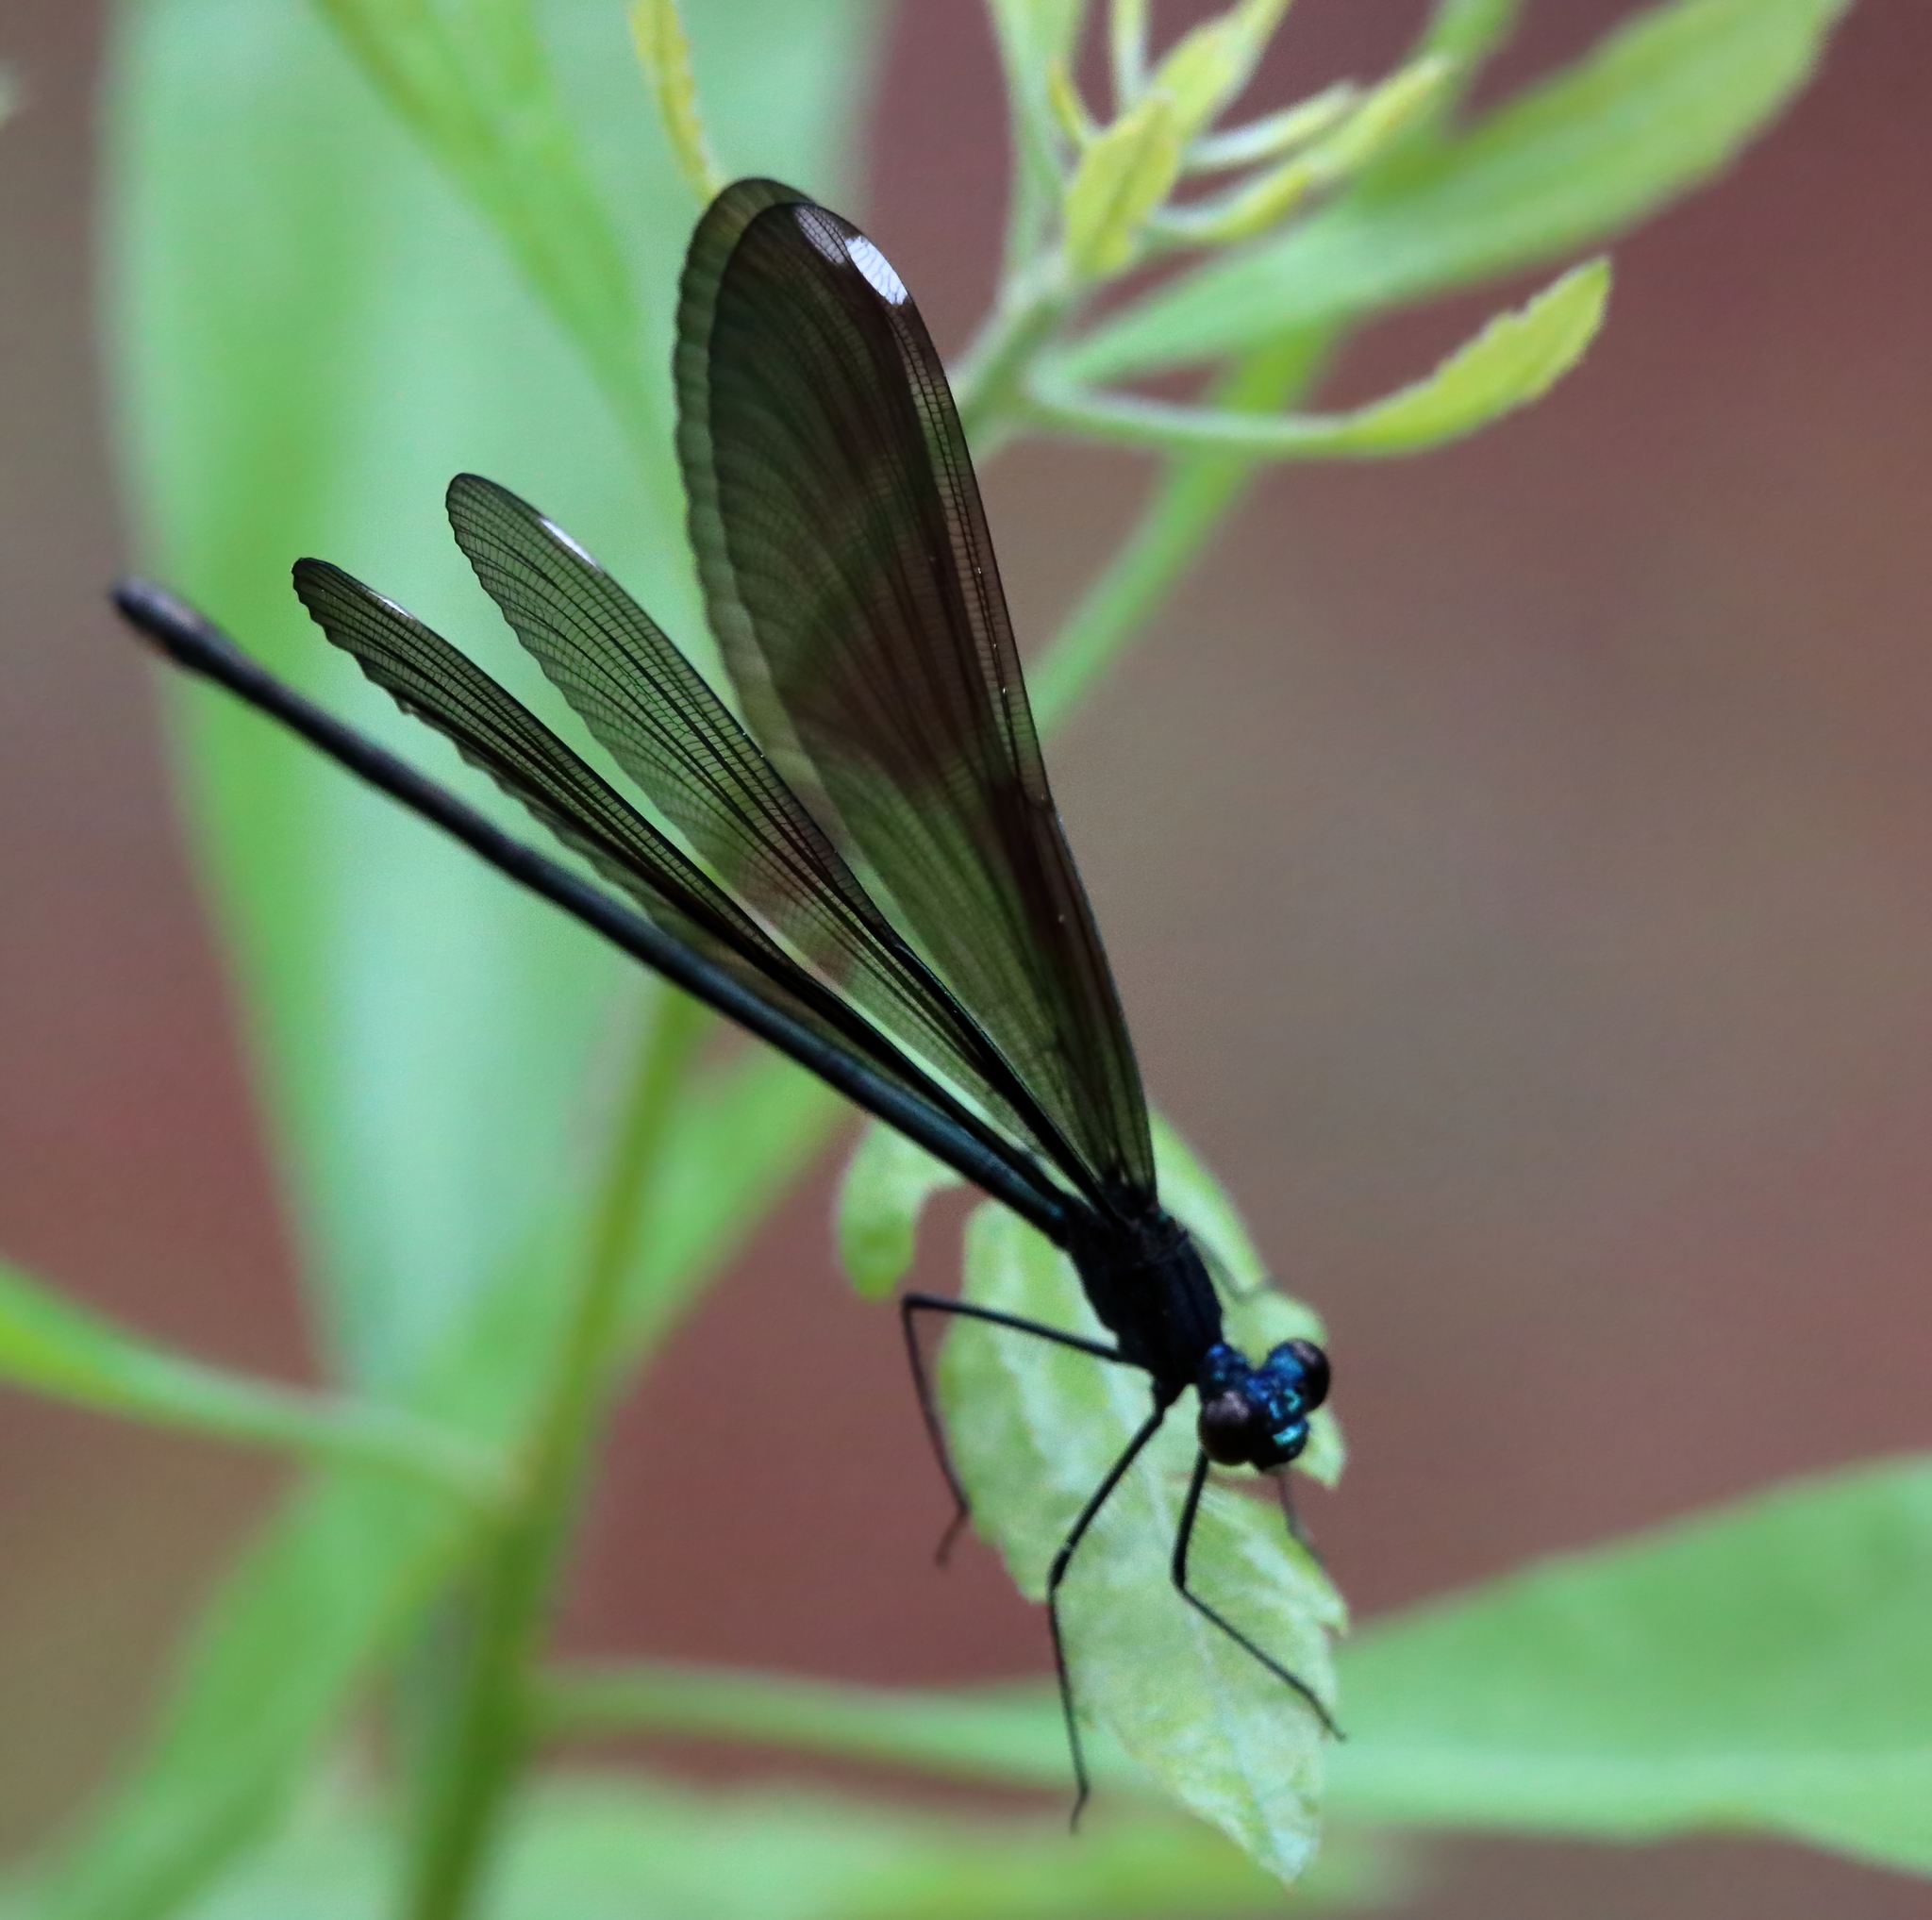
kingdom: Animalia
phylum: Arthropoda
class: Insecta
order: Odonata
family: Calopterygidae
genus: Calopteryx
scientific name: Calopteryx maculata
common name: Ebony jewelwing
